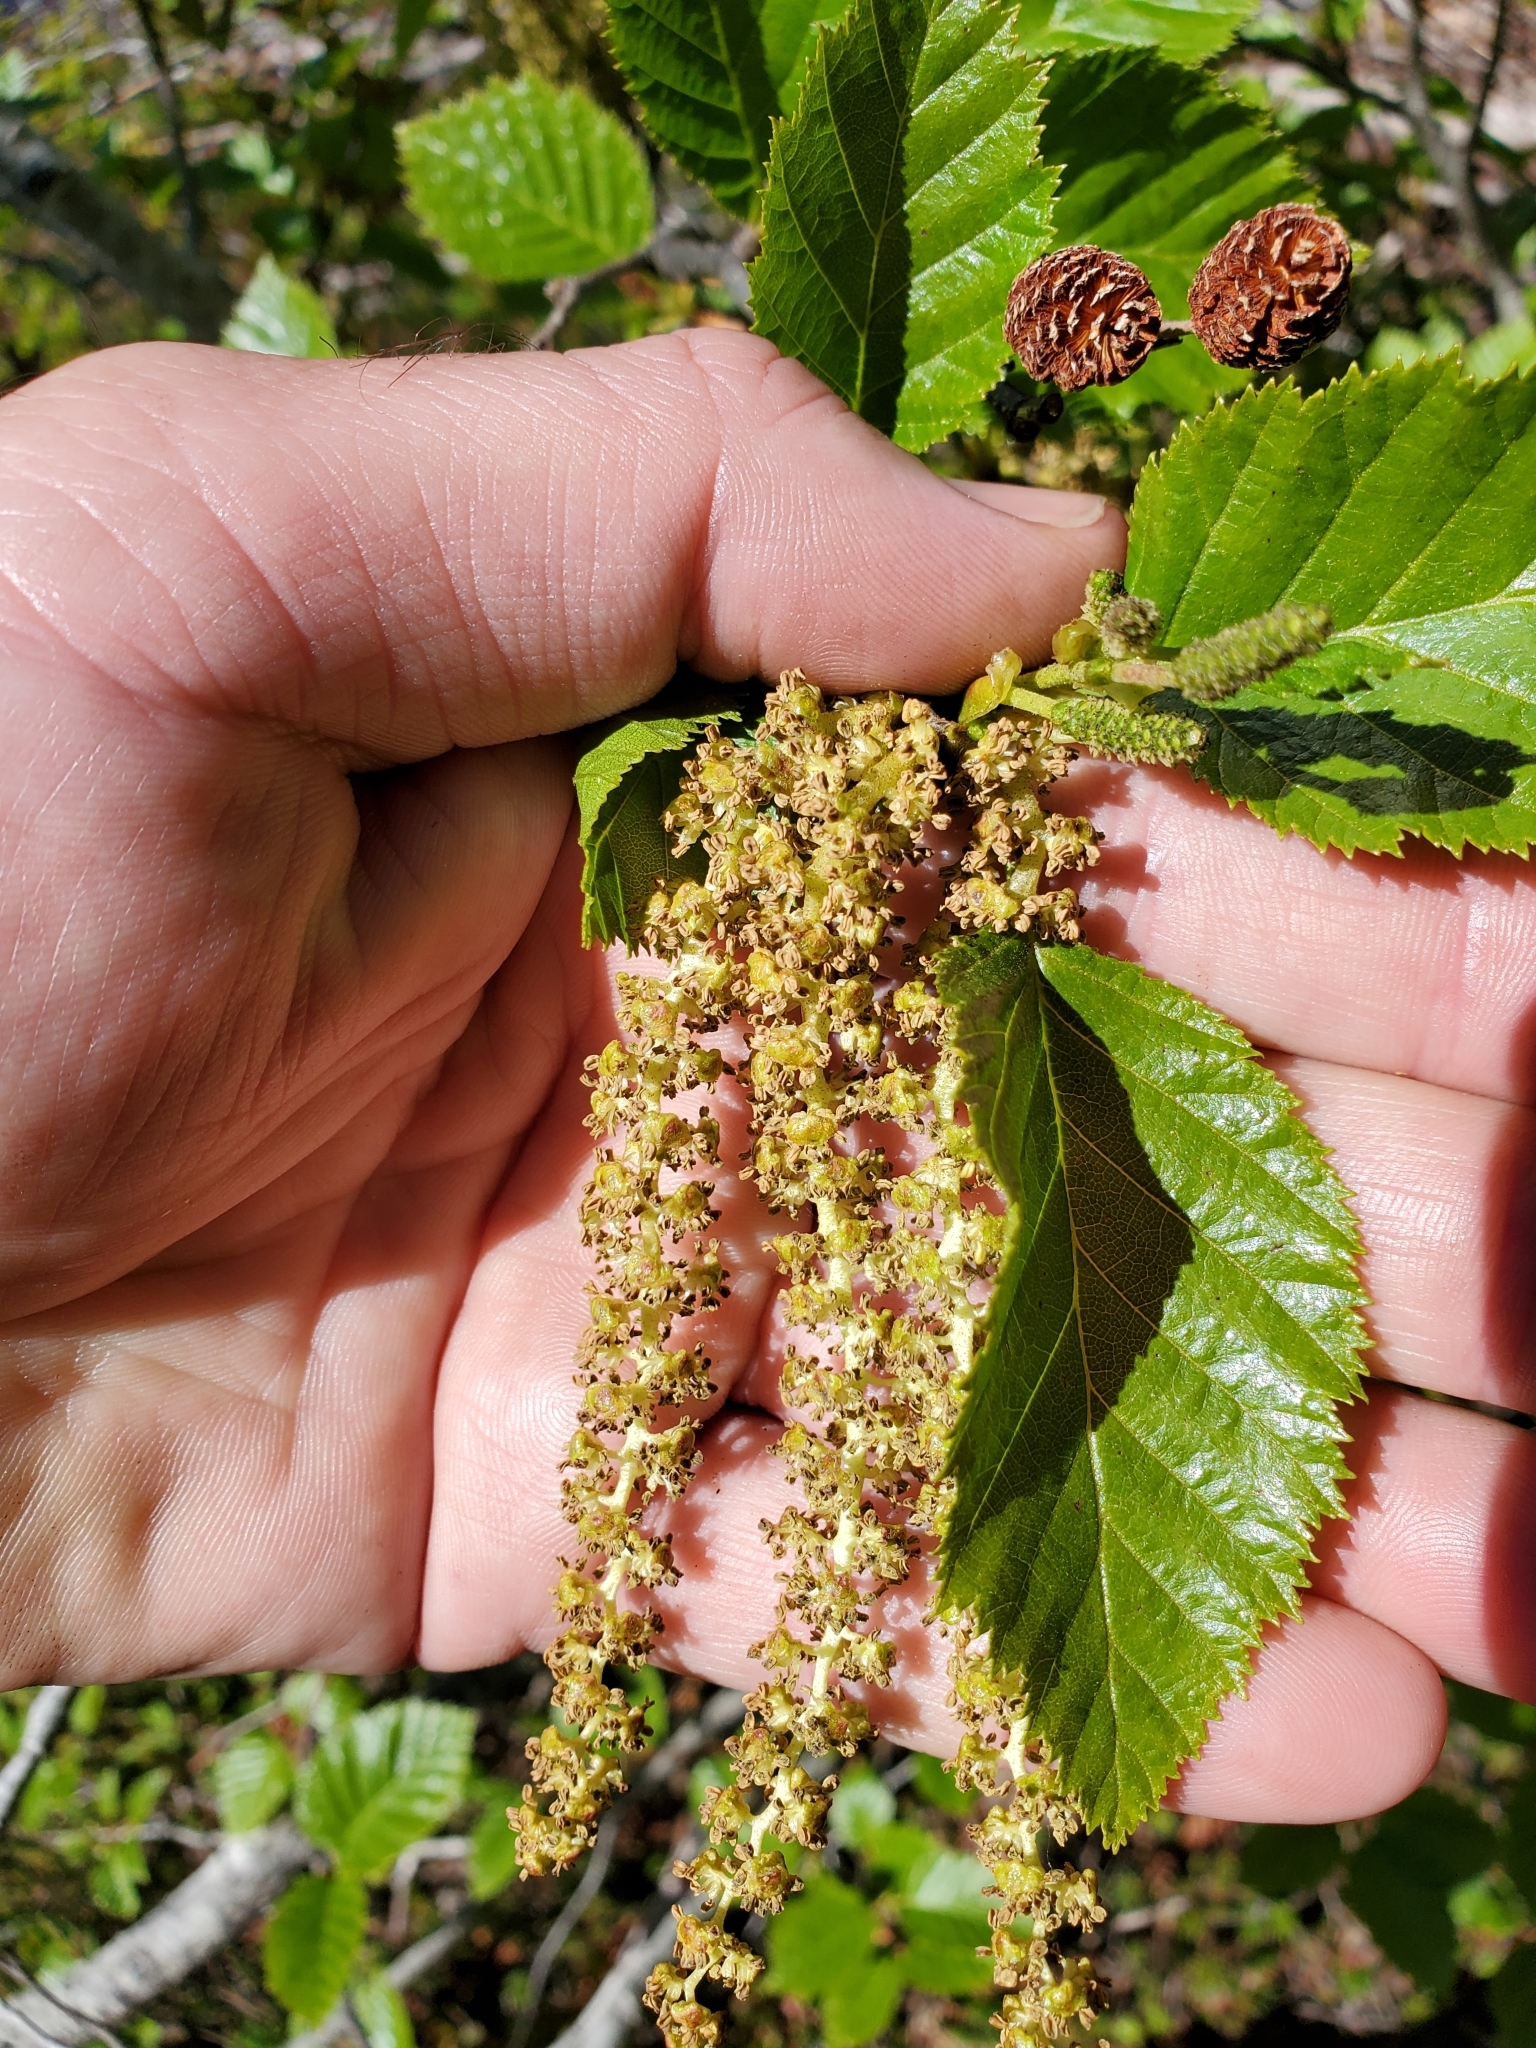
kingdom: Plantae
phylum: Tracheophyta
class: Magnoliopsida
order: Fagales
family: Betulaceae
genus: Alnus
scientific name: Alnus alnobetula
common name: Green alder
